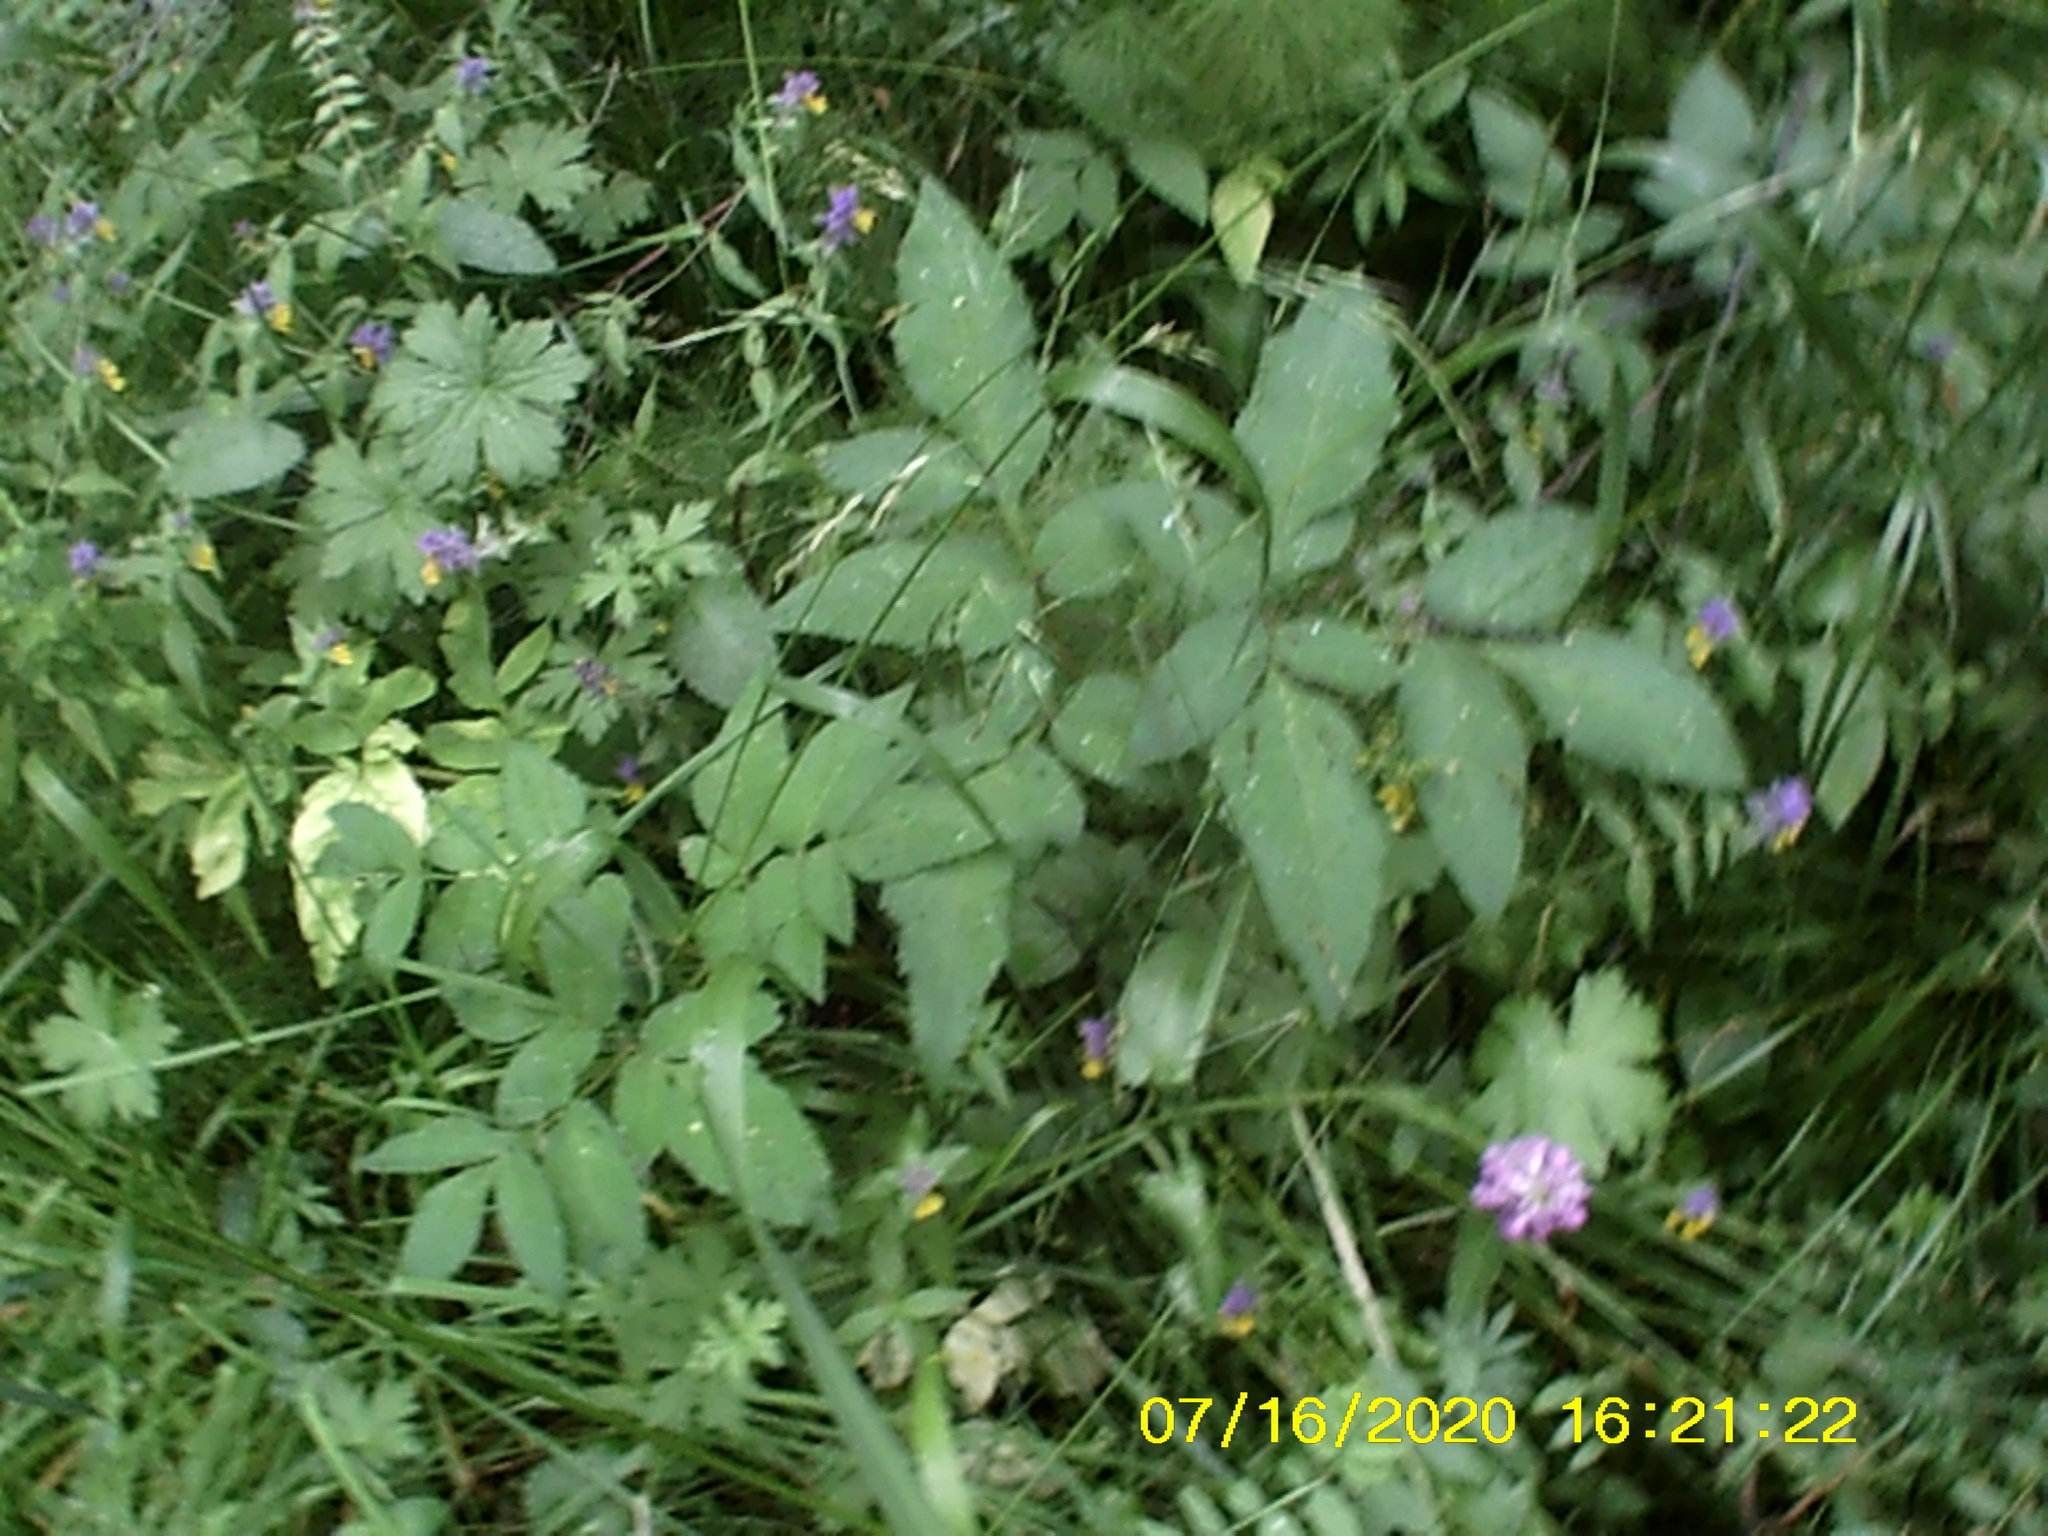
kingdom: Plantae
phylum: Tracheophyta
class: Magnoliopsida
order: Apiales
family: Apiaceae
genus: Angelica
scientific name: Angelica sylvestris
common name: Wild angelica
